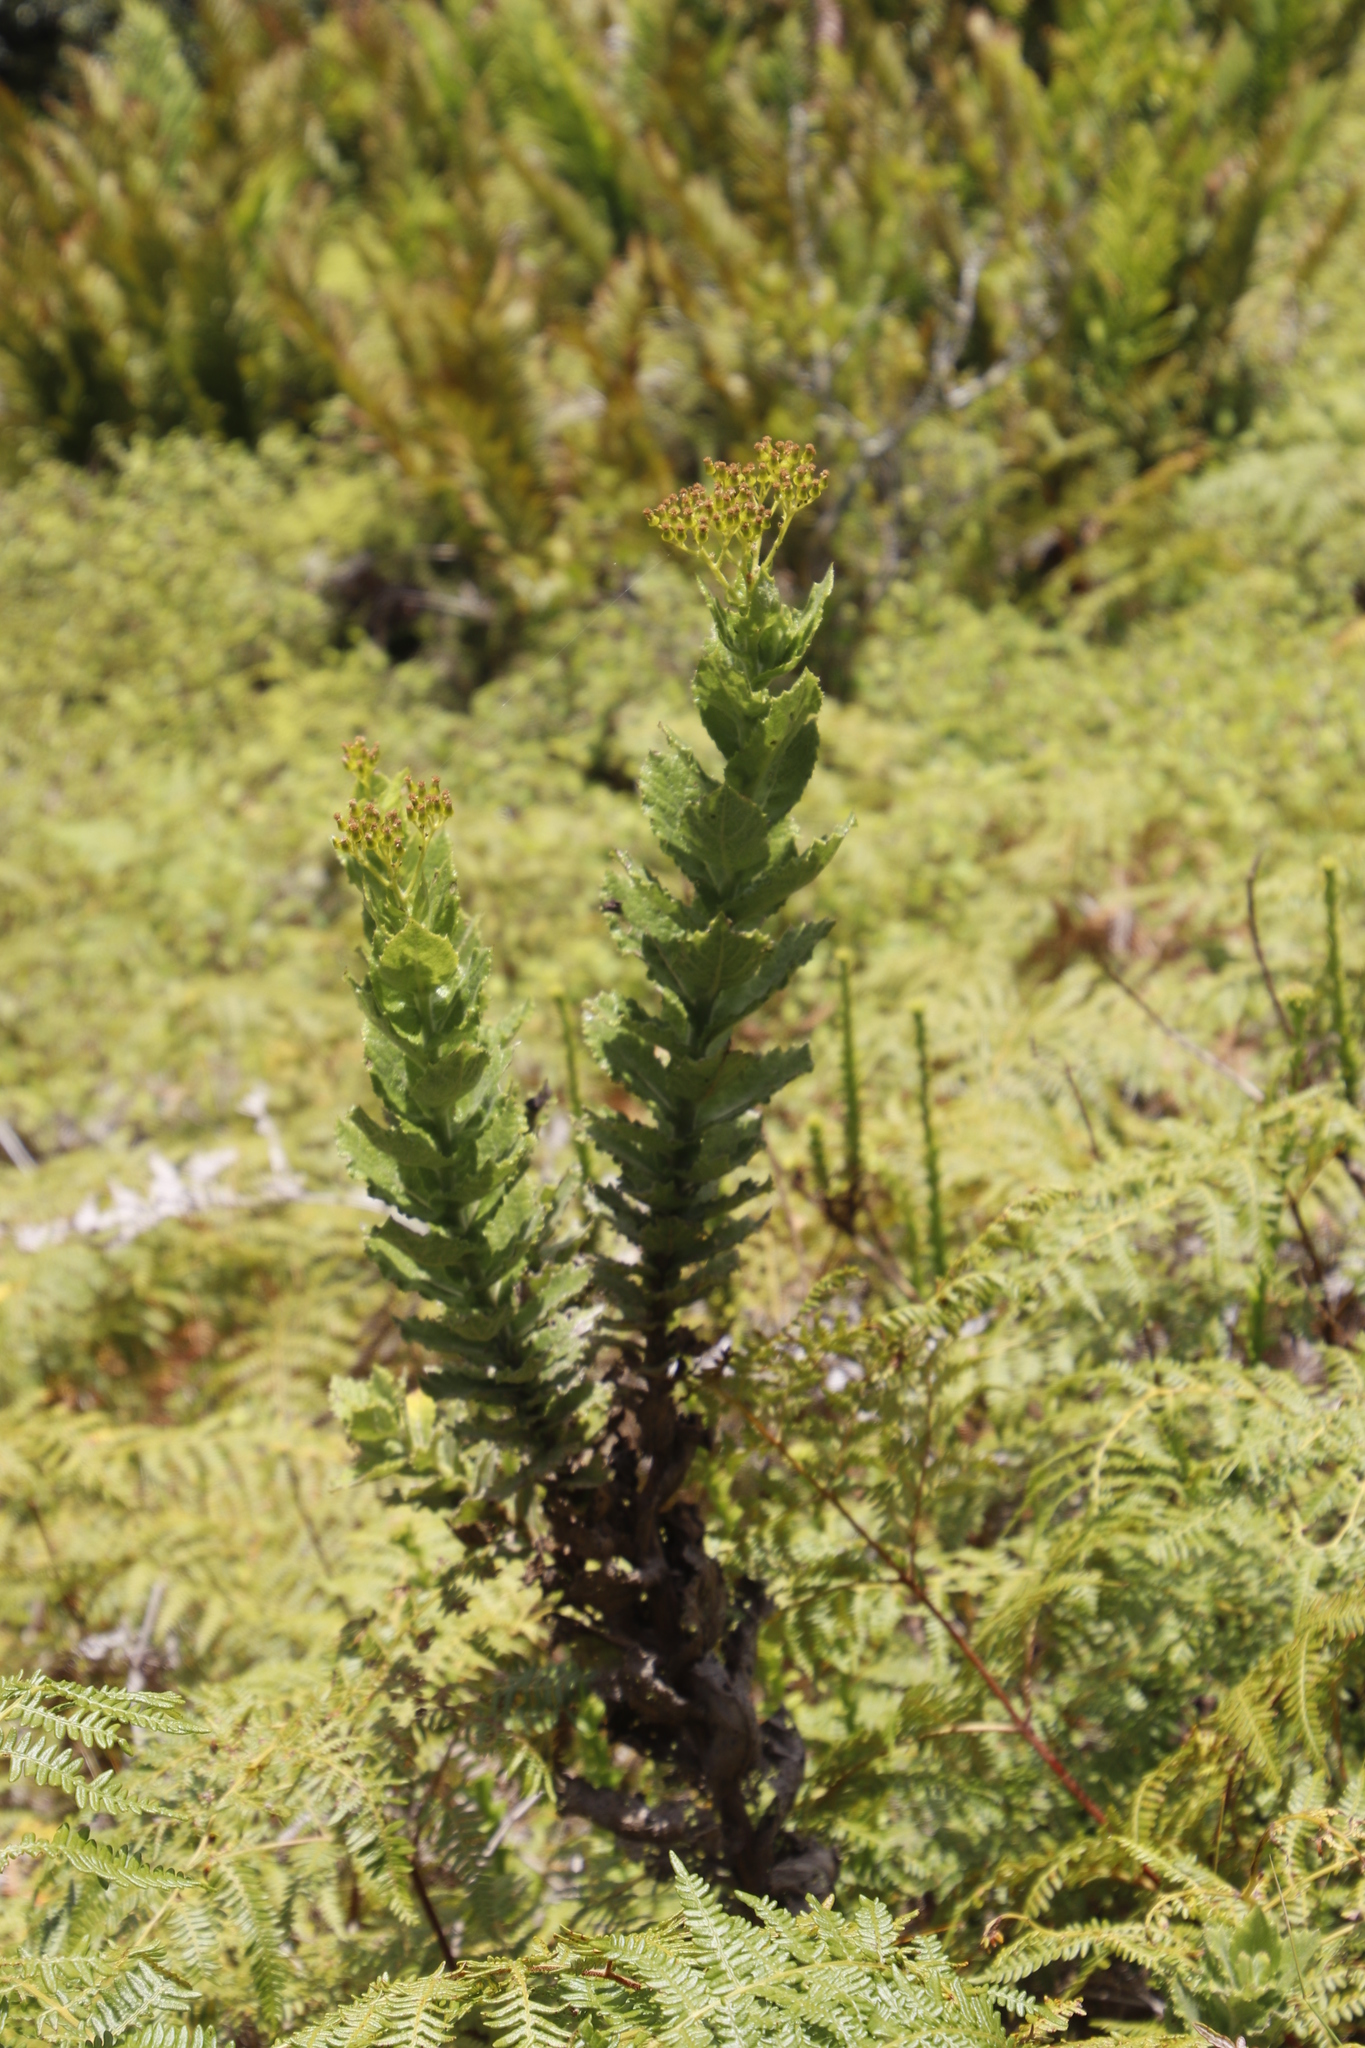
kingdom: Plantae
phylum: Tracheophyta
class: Magnoliopsida
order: Asterales
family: Asteraceae
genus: Senecio
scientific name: Senecio rigidus
